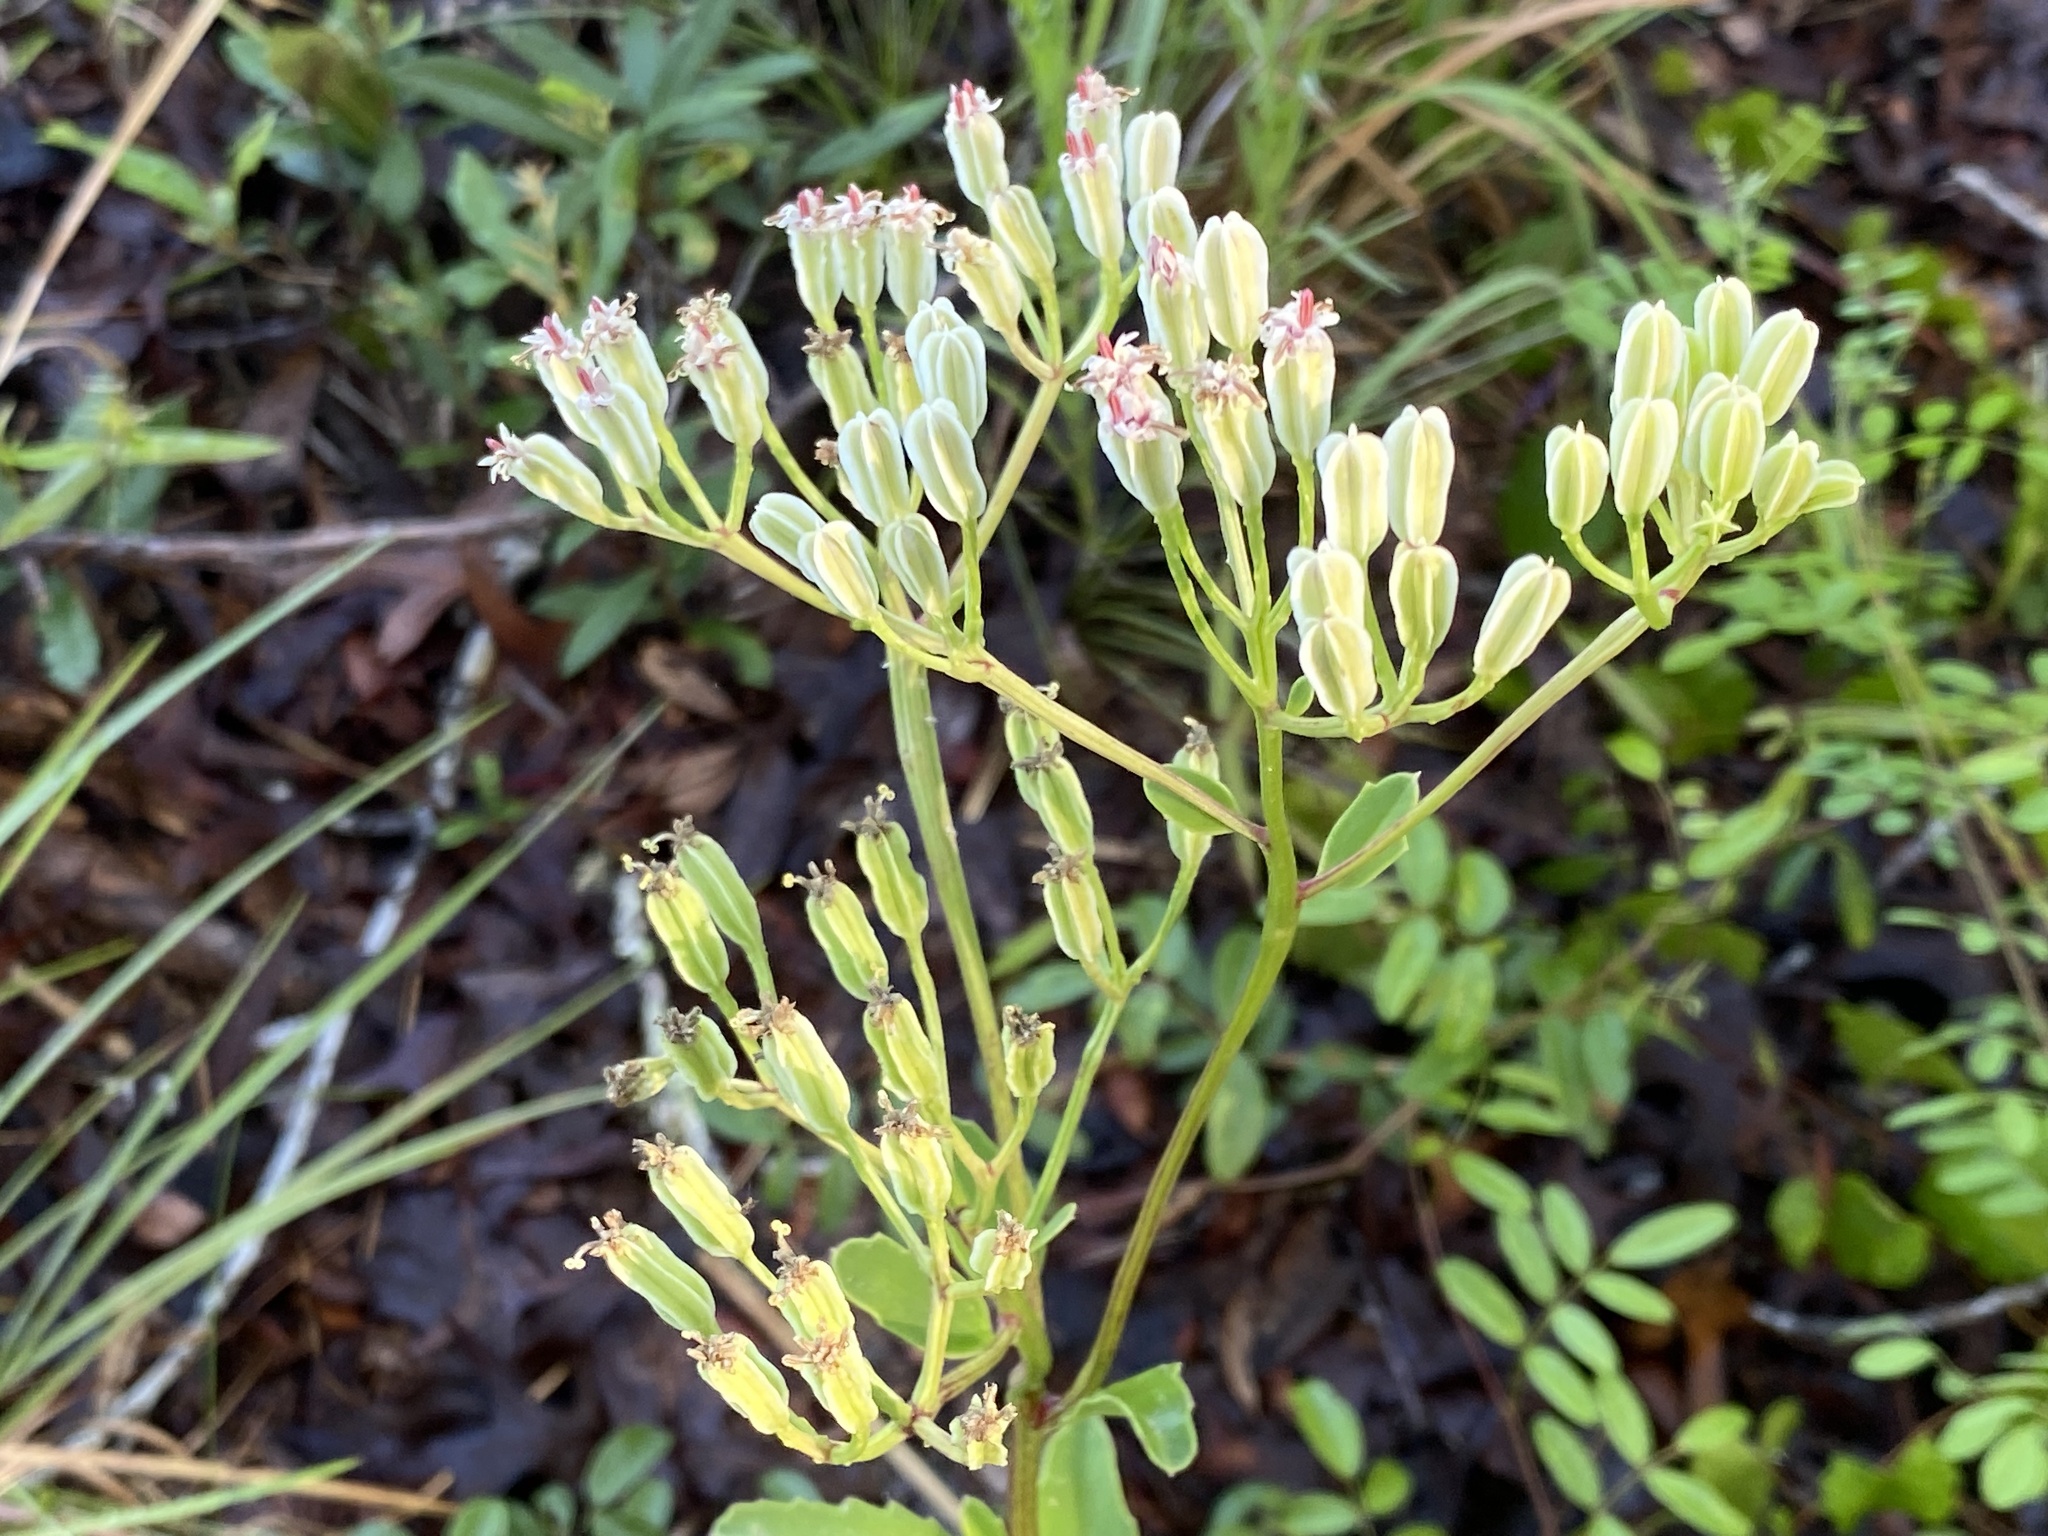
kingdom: Plantae
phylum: Tracheophyta
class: Magnoliopsida
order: Asterales
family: Asteraceae
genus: Arnoglossum
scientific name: Arnoglossum floridanum
